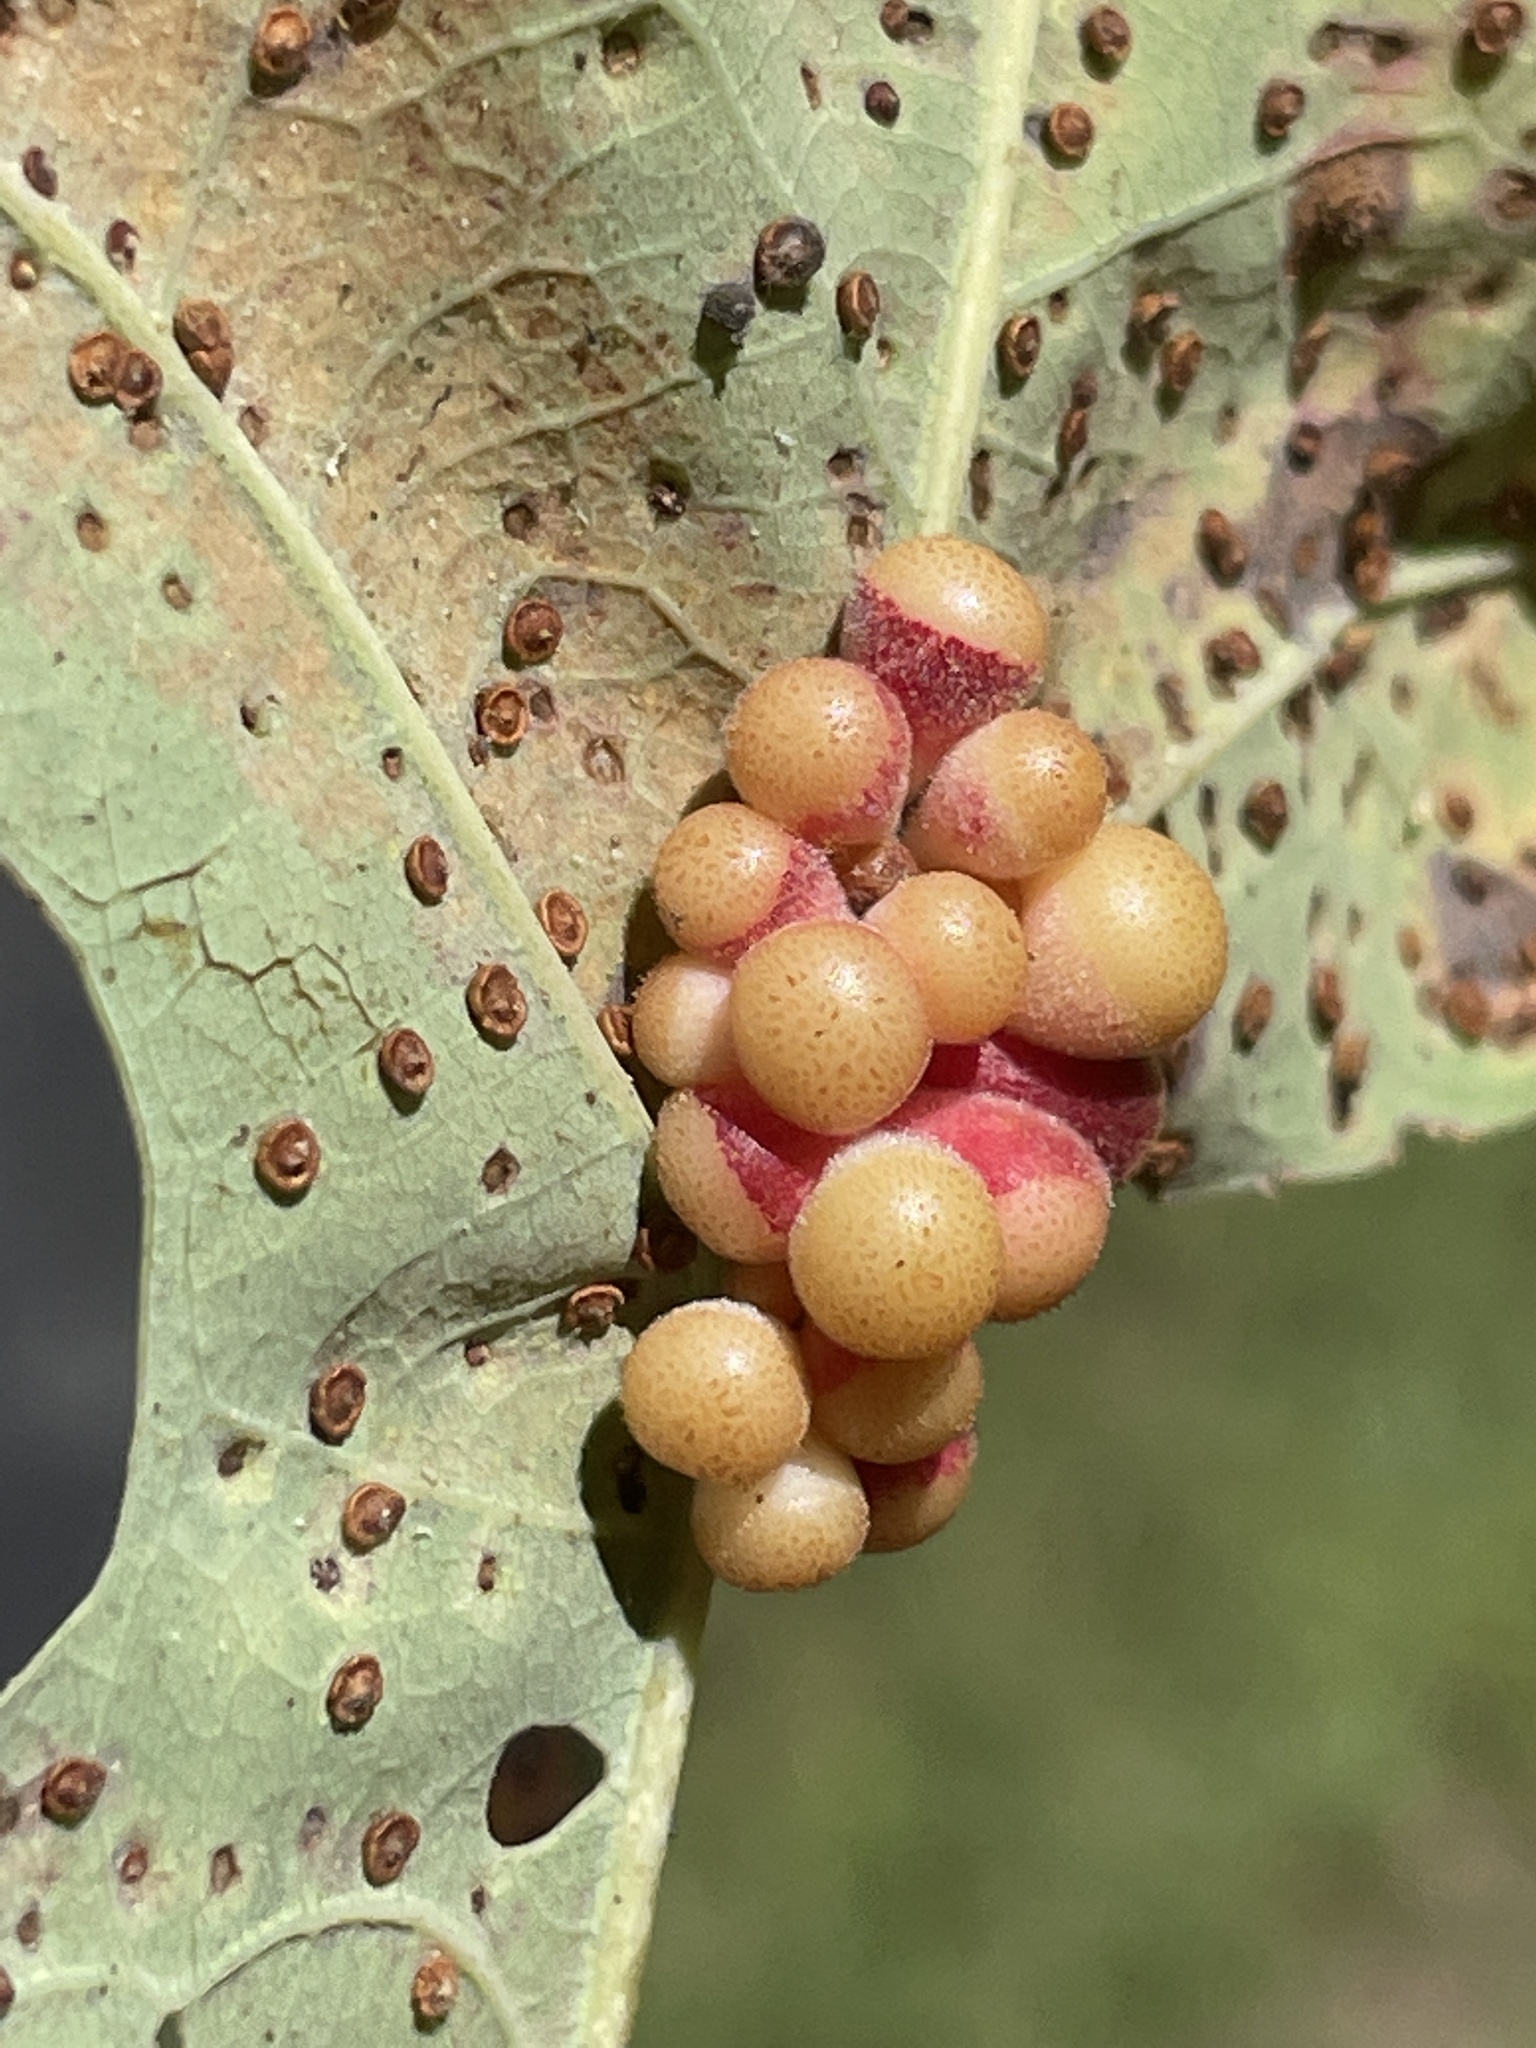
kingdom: Animalia
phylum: Arthropoda
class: Insecta
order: Hymenoptera
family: Cynipidae
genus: Andricus
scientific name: Andricus
